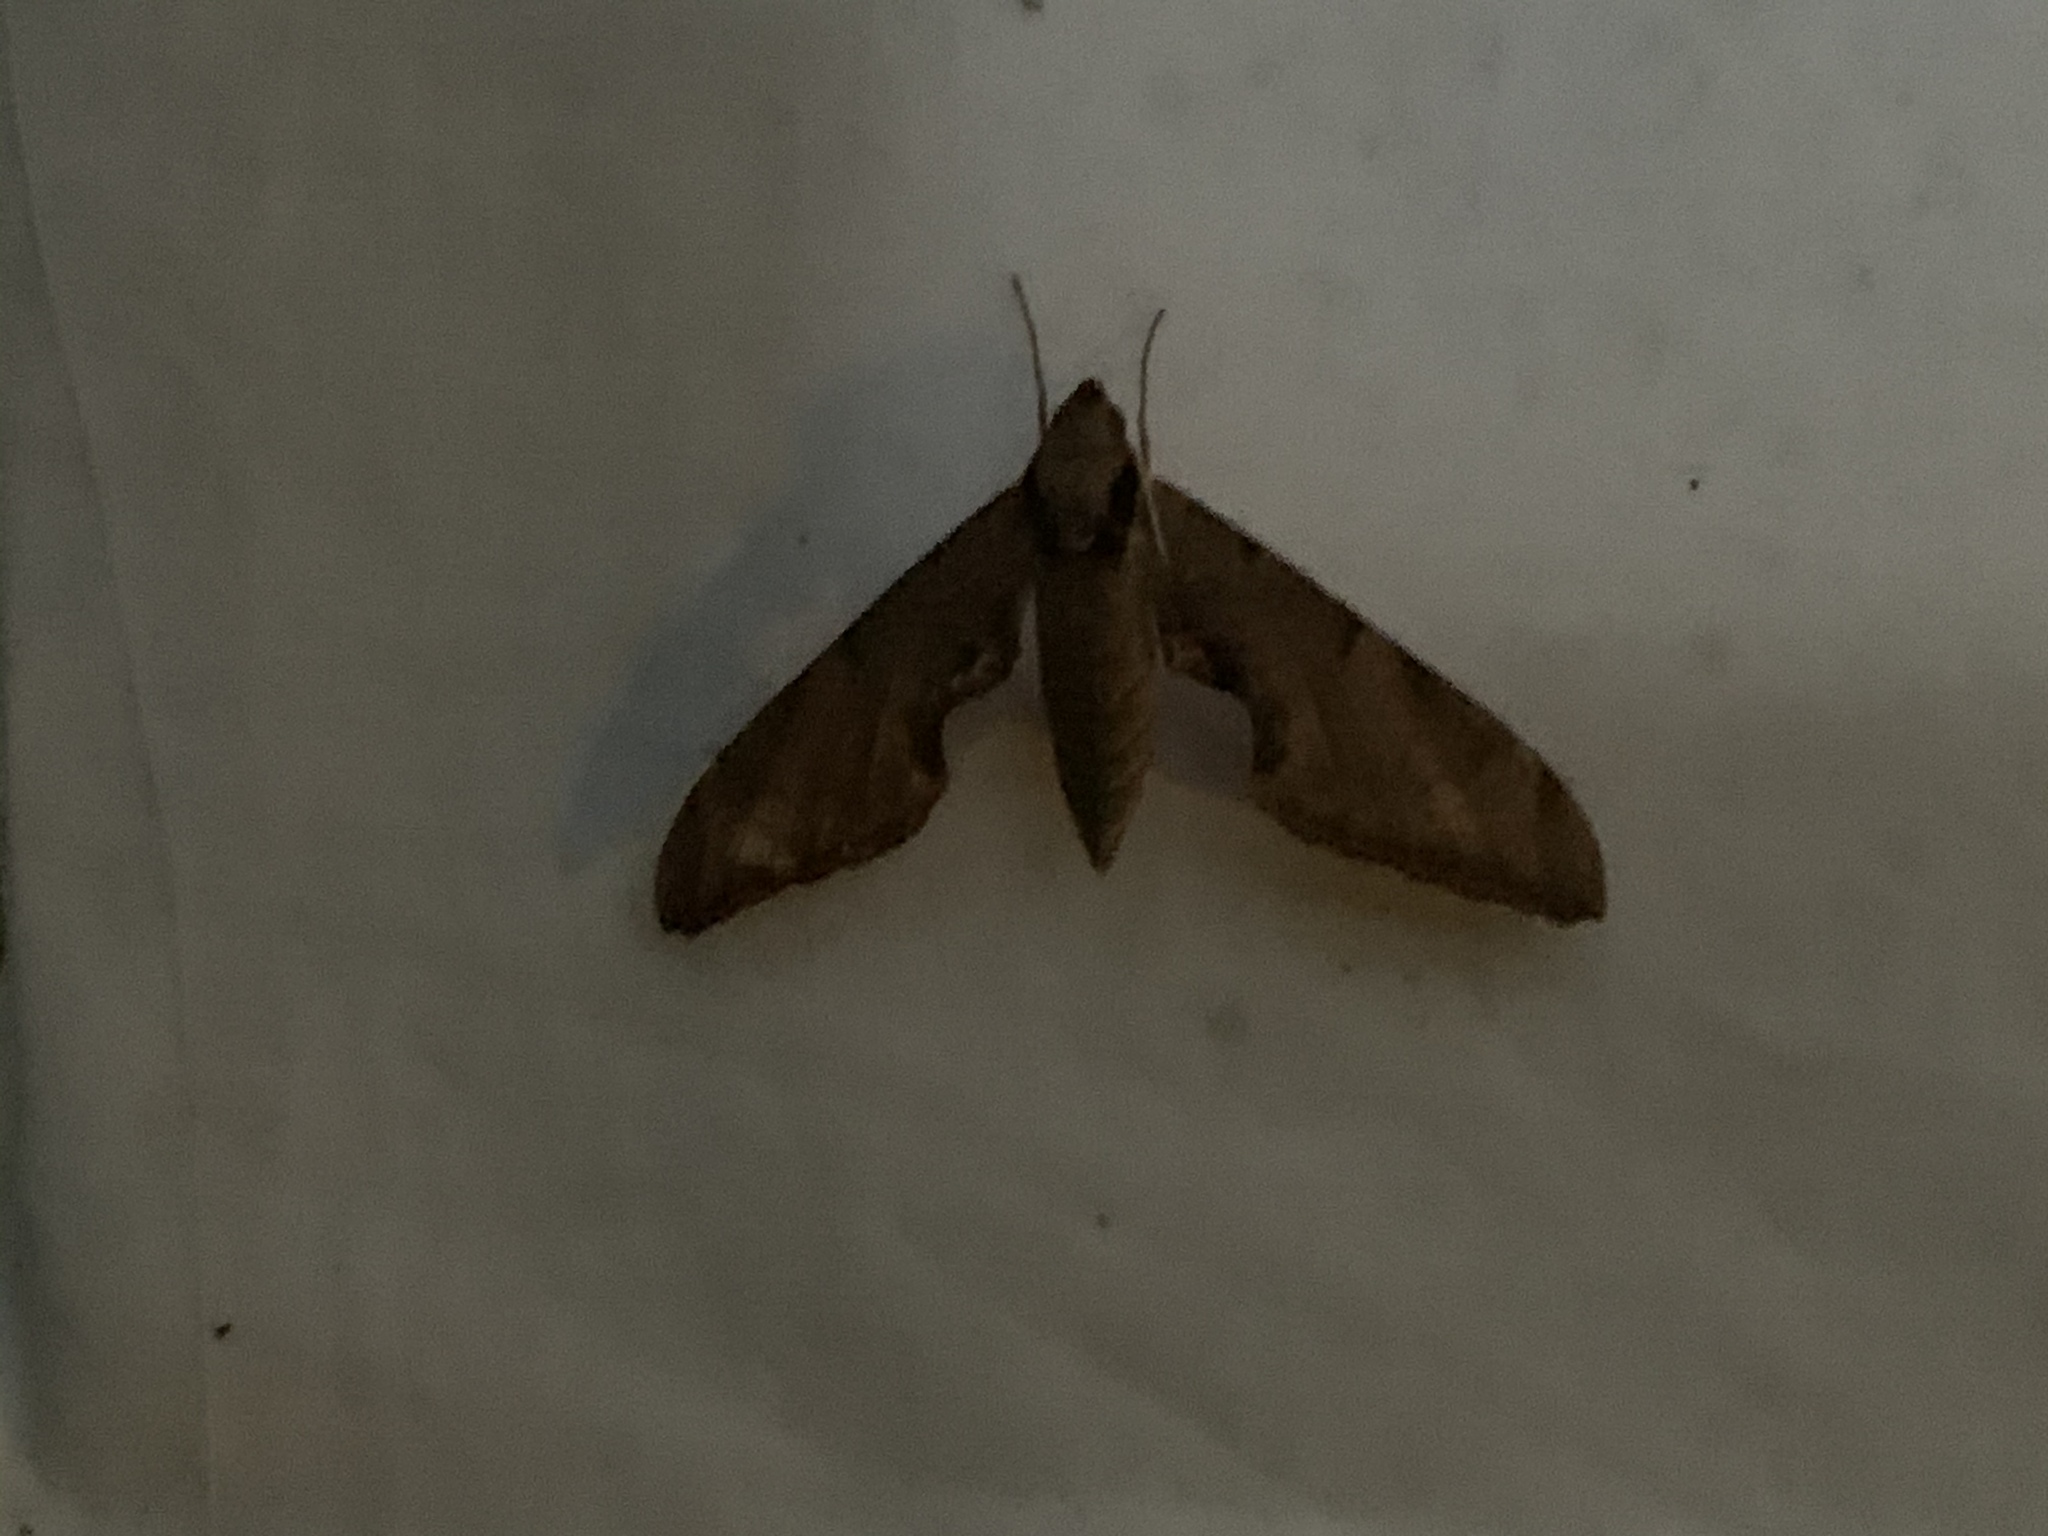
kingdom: Animalia
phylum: Arthropoda
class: Insecta
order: Lepidoptera
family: Sphingidae
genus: Protambulyx
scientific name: Protambulyx strigilis
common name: Streaked sphinx
